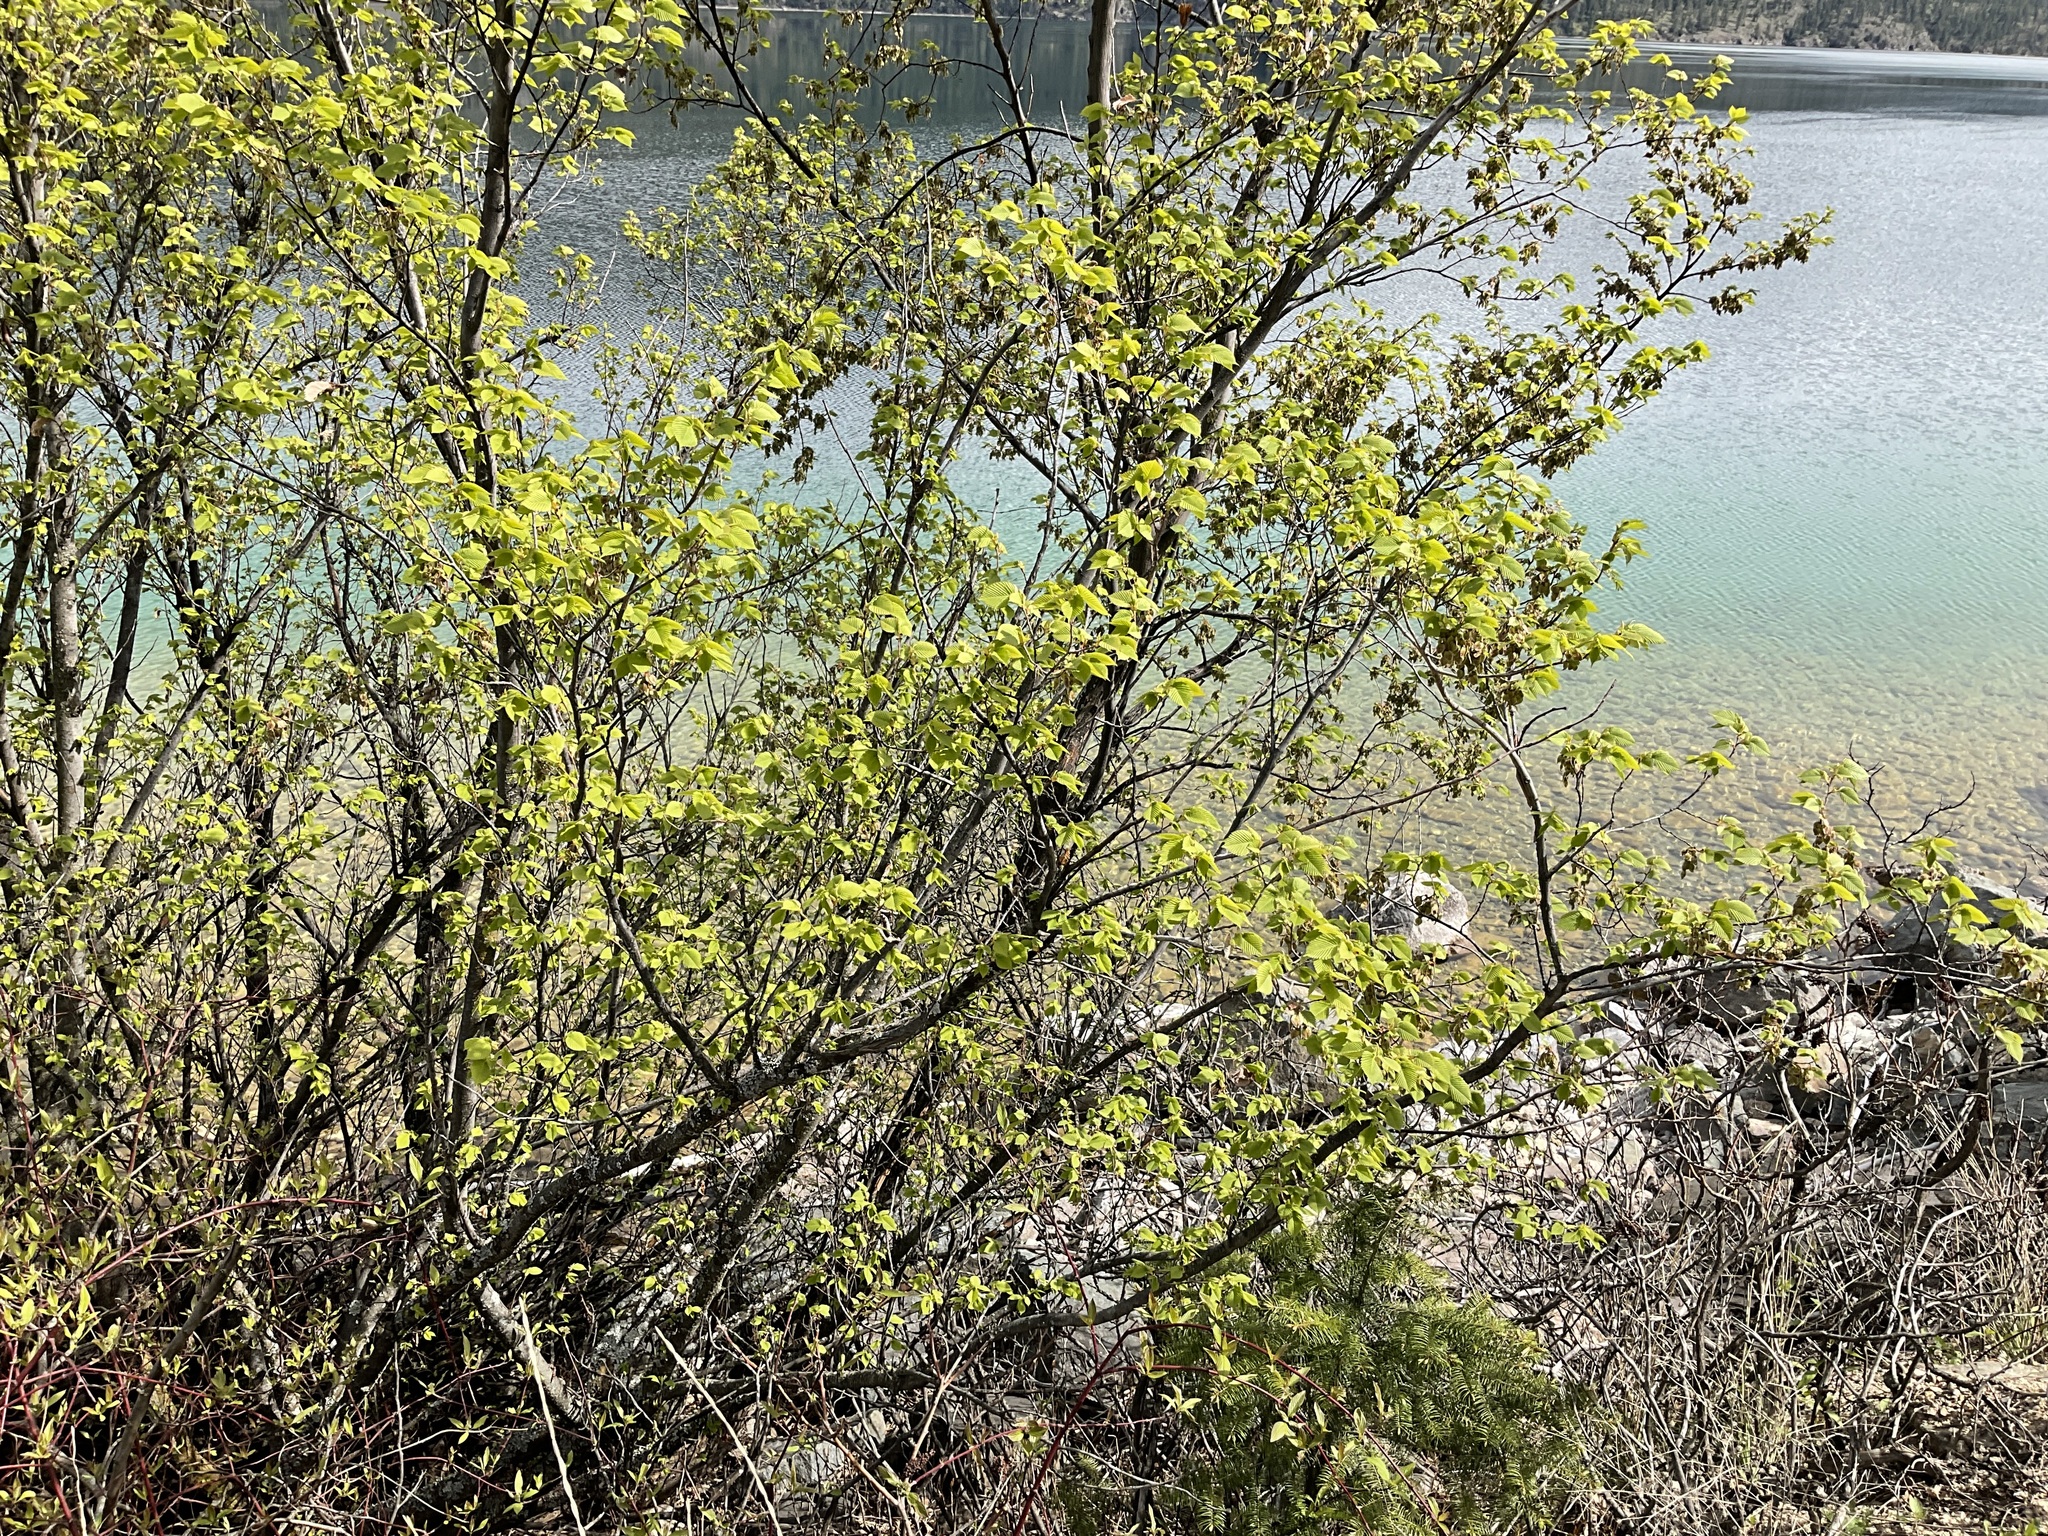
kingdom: Plantae
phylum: Tracheophyta
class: Magnoliopsida
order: Rosales
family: Ulmaceae
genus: Ulmus
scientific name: Ulmus americana
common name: American elm
